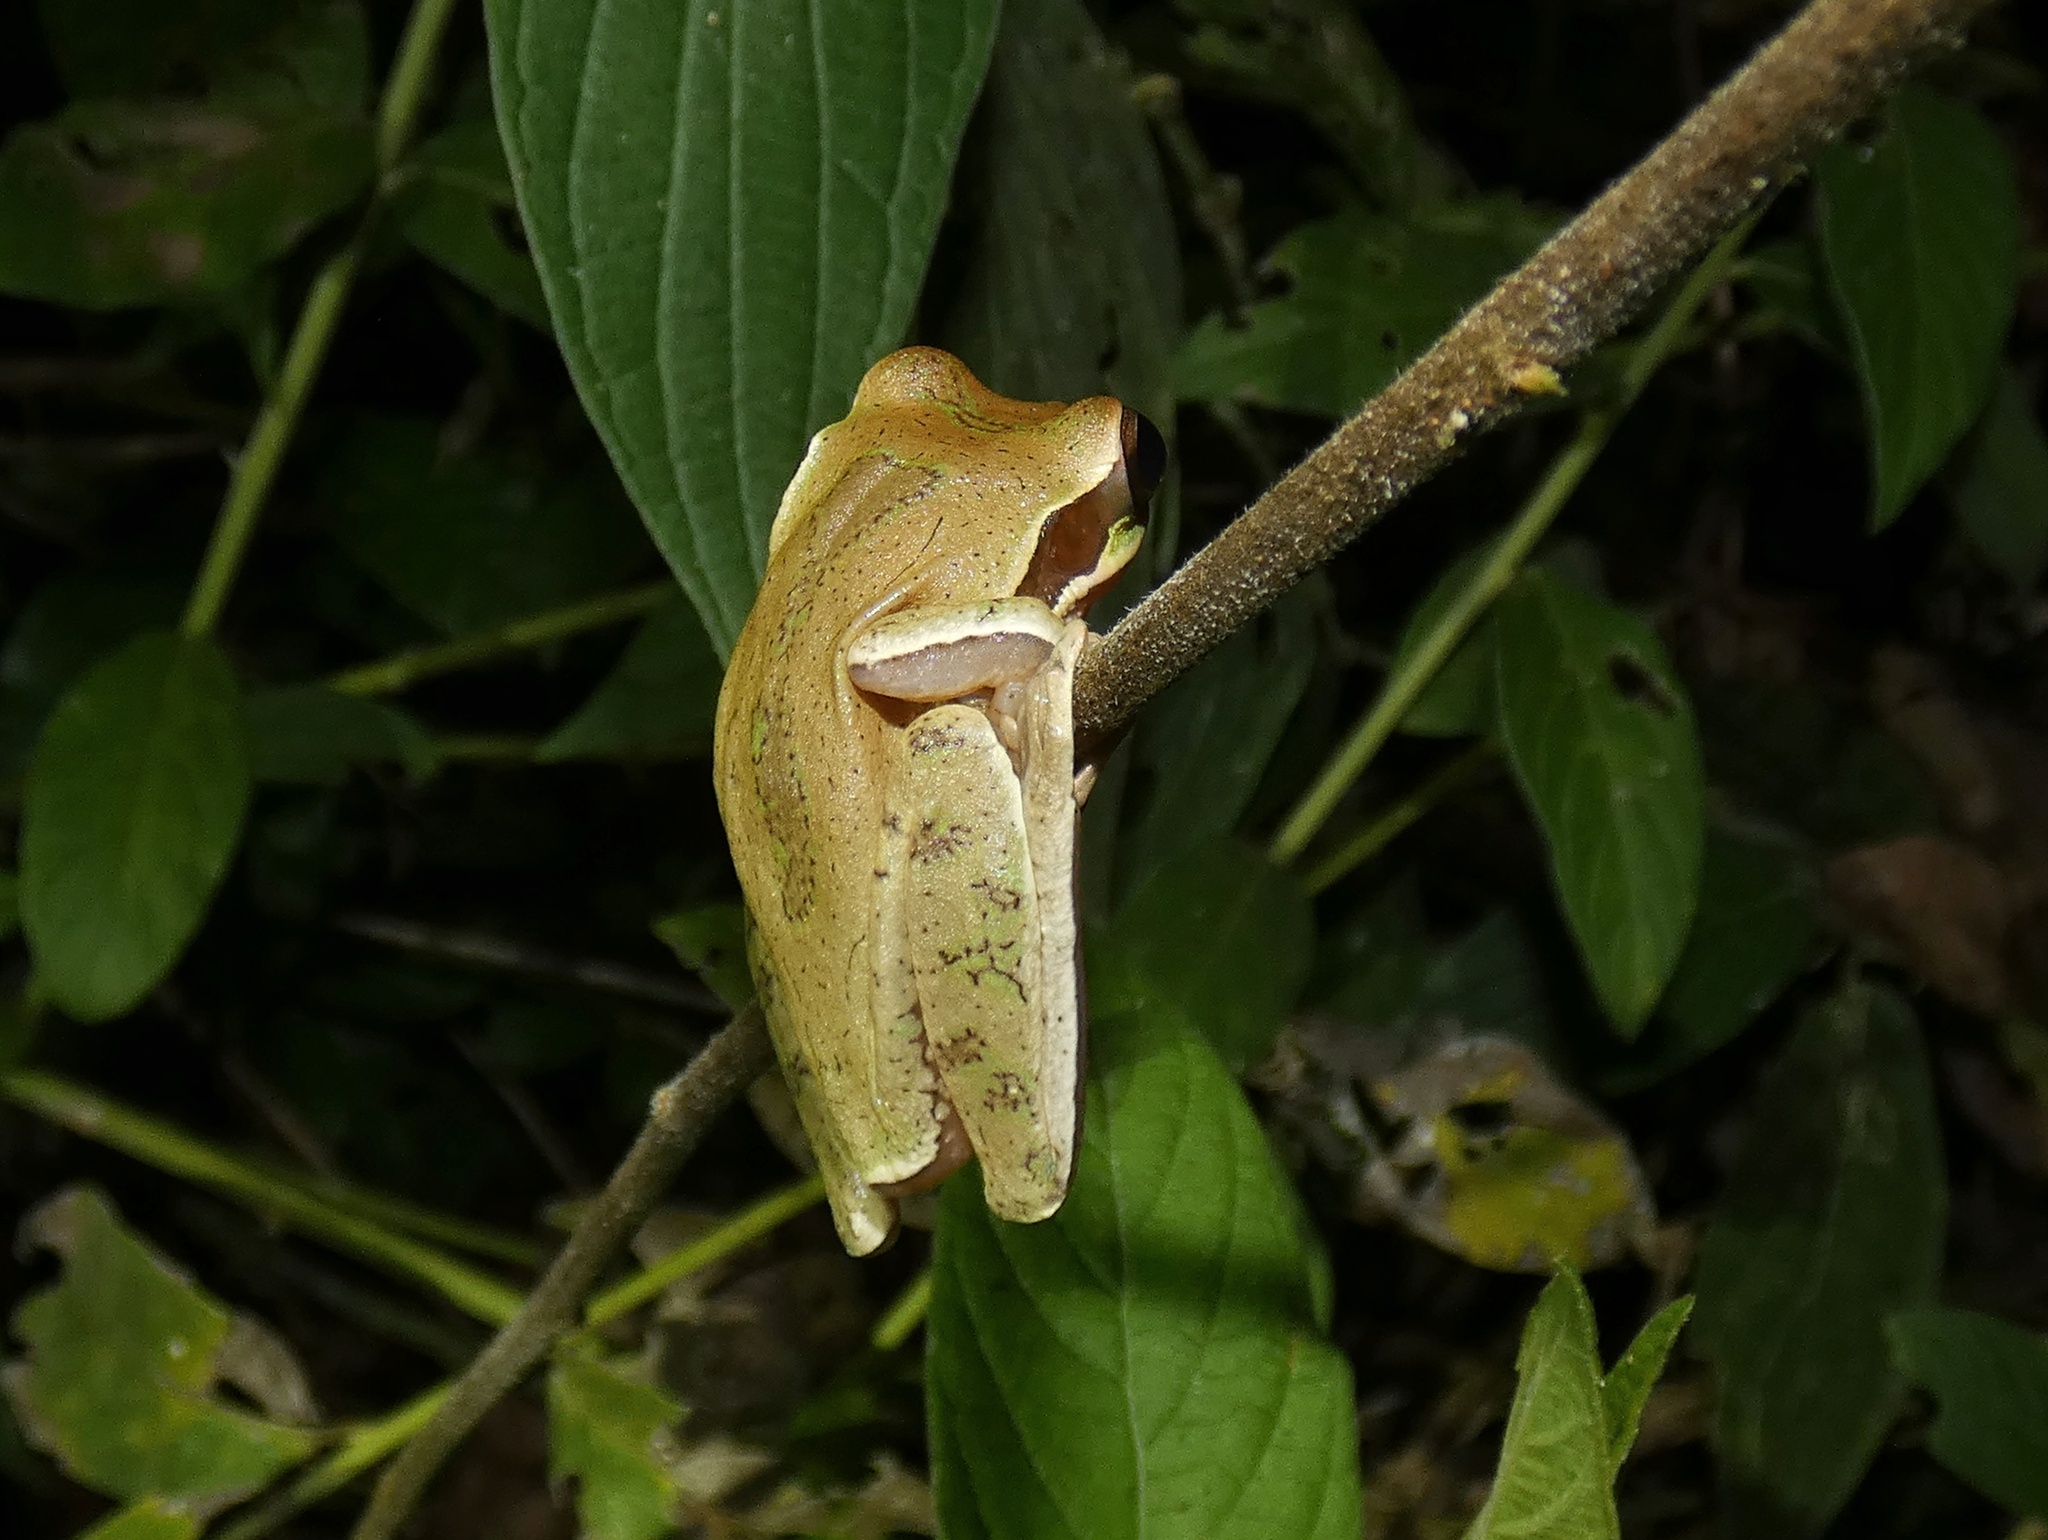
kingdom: Animalia
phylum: Chordata
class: Amphibia
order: Anura
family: Hylidae
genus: Smilisca
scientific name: Smilisca phaeota
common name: Central american smilisca
